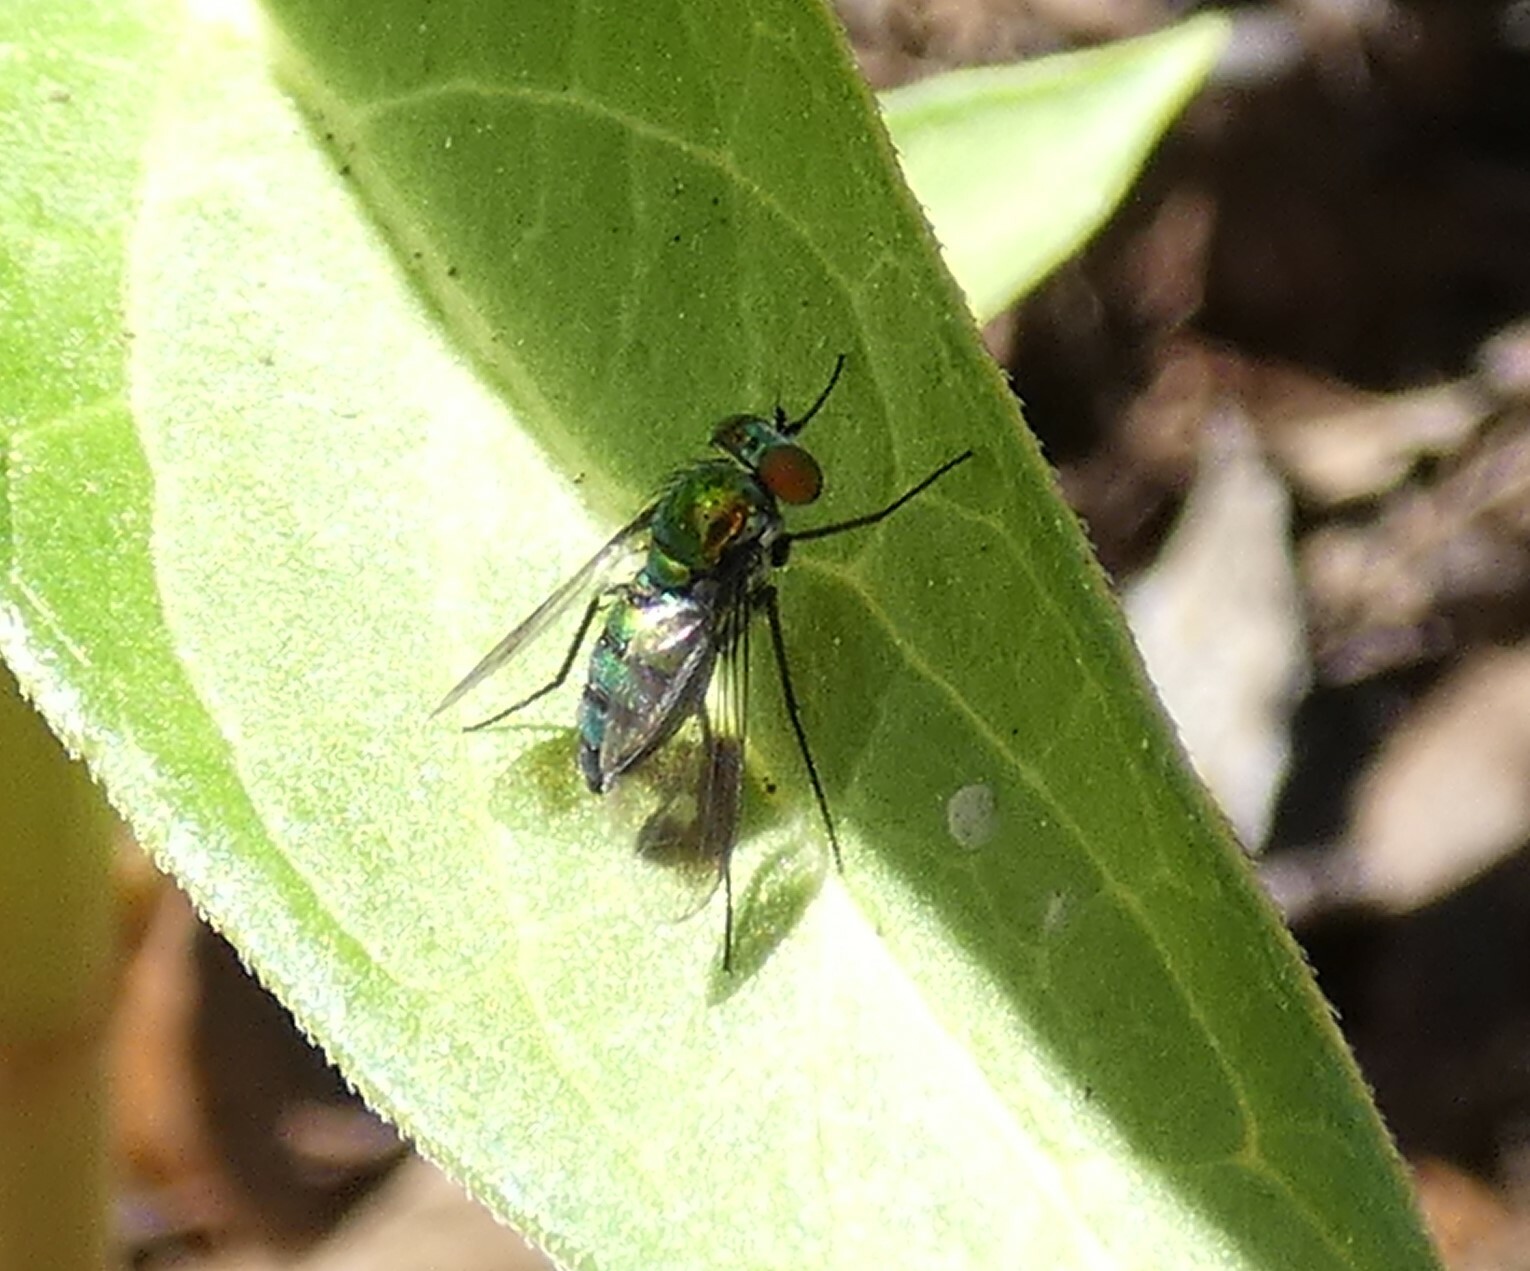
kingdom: Animalia
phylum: Arthropoda
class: Insecta
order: Diptera
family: Dolichopodidae
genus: Condylostylus
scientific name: Condylostylus patibulatus
